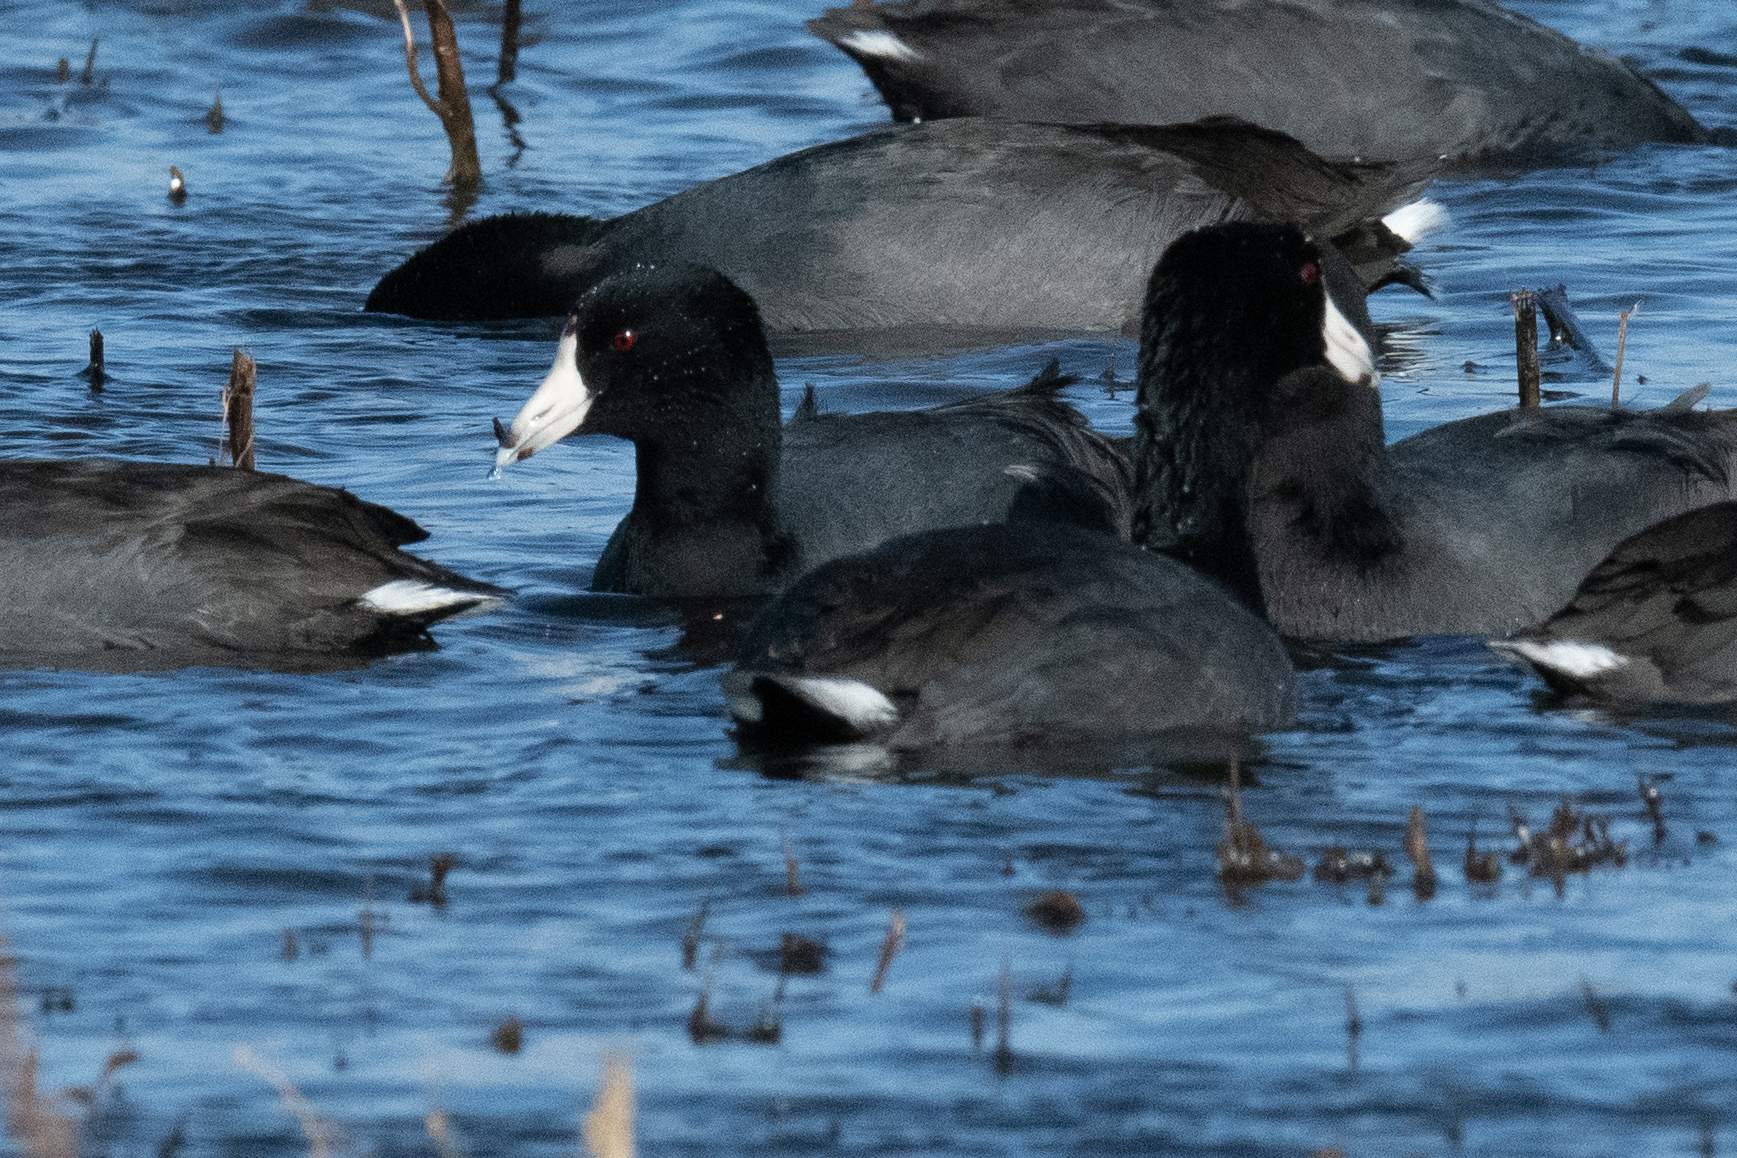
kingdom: Animalia
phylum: Chordata
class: Aves
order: Gruiformes
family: Rallidae
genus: Fulica
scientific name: Fulica americana
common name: American coot
